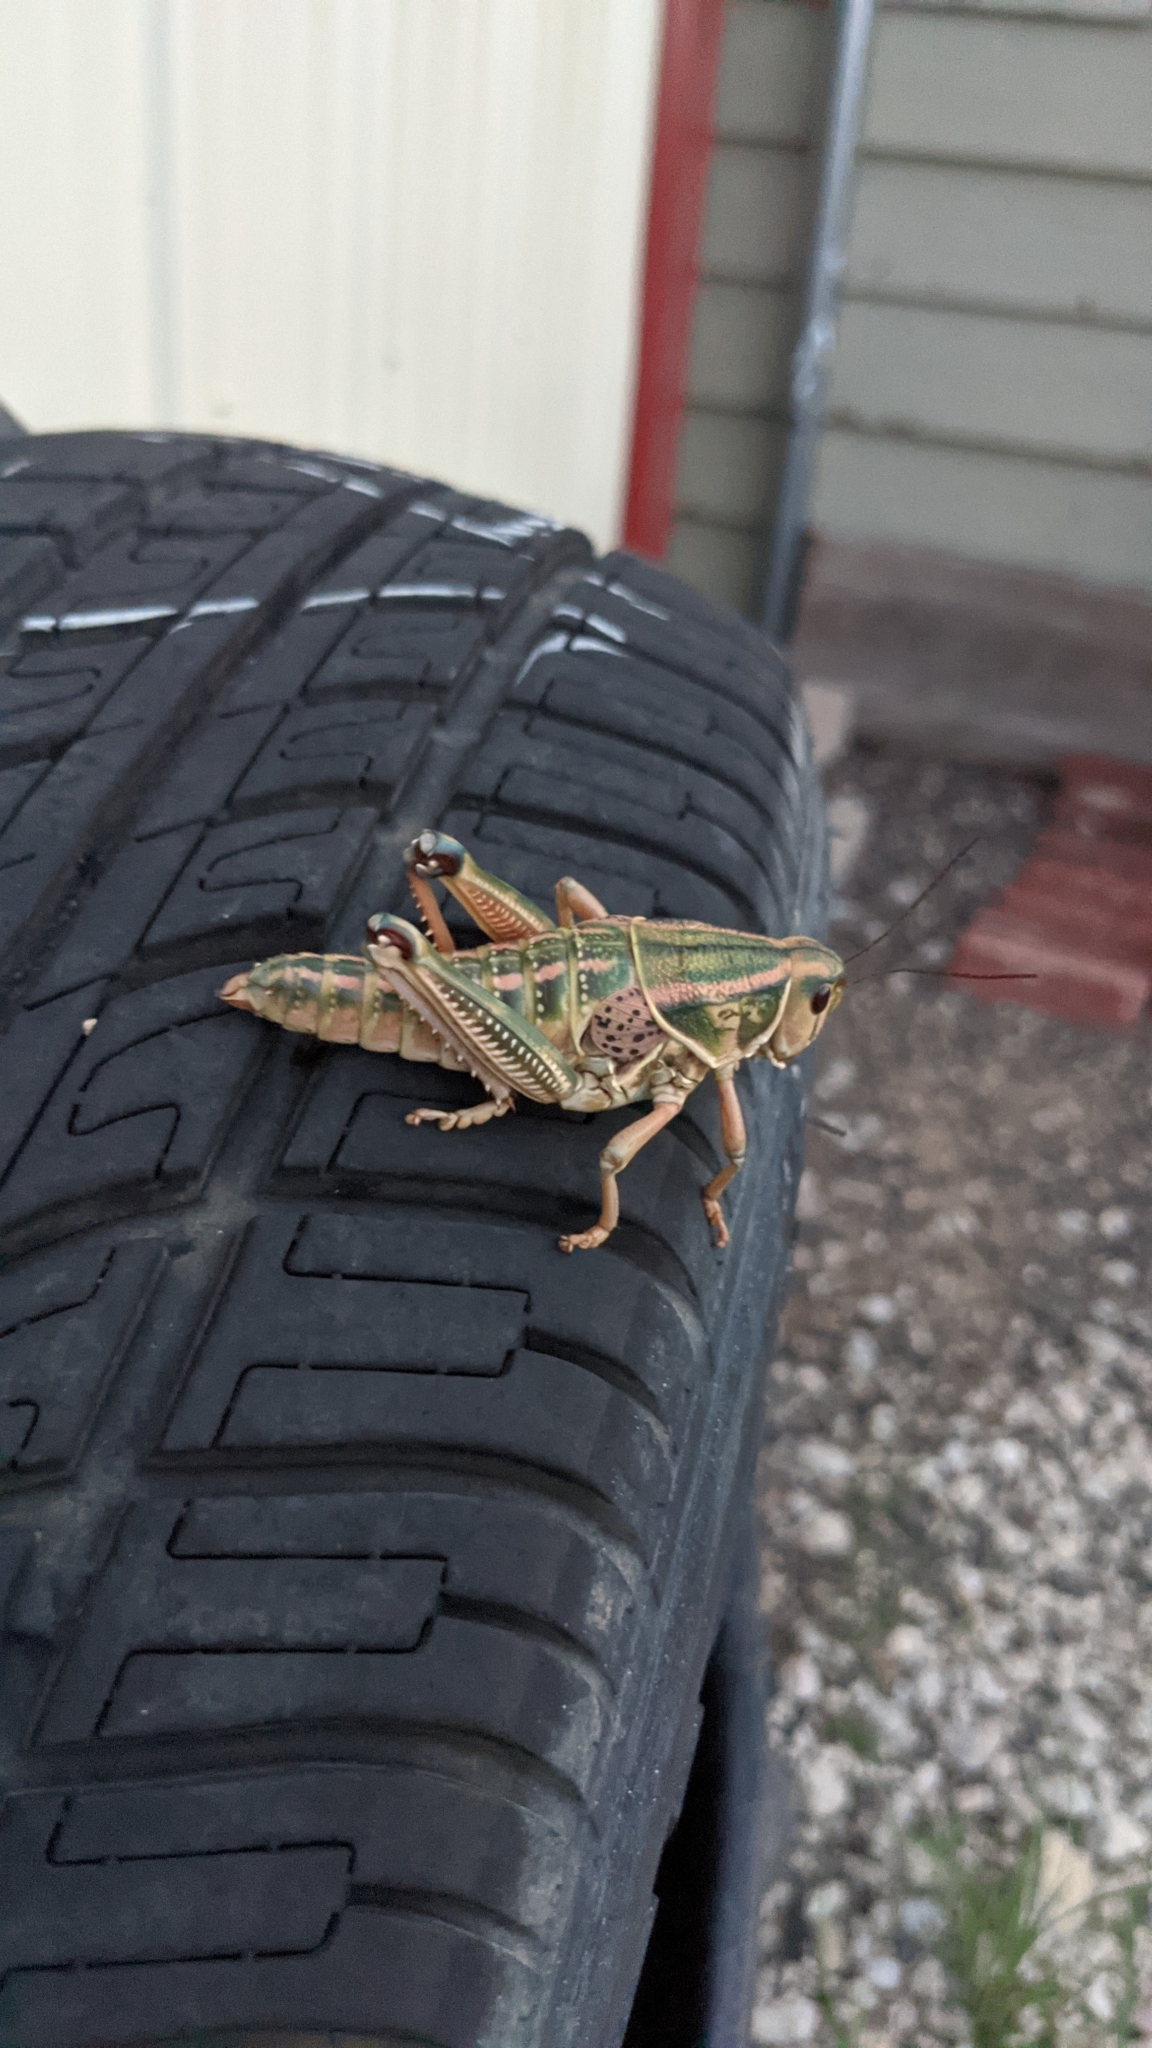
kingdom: Animalia
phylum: Arthropoda
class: Insecta
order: Orthoptera
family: Romaleidae
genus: Brachystola
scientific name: Brachystola magna
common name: Plains lubber grasshopper
